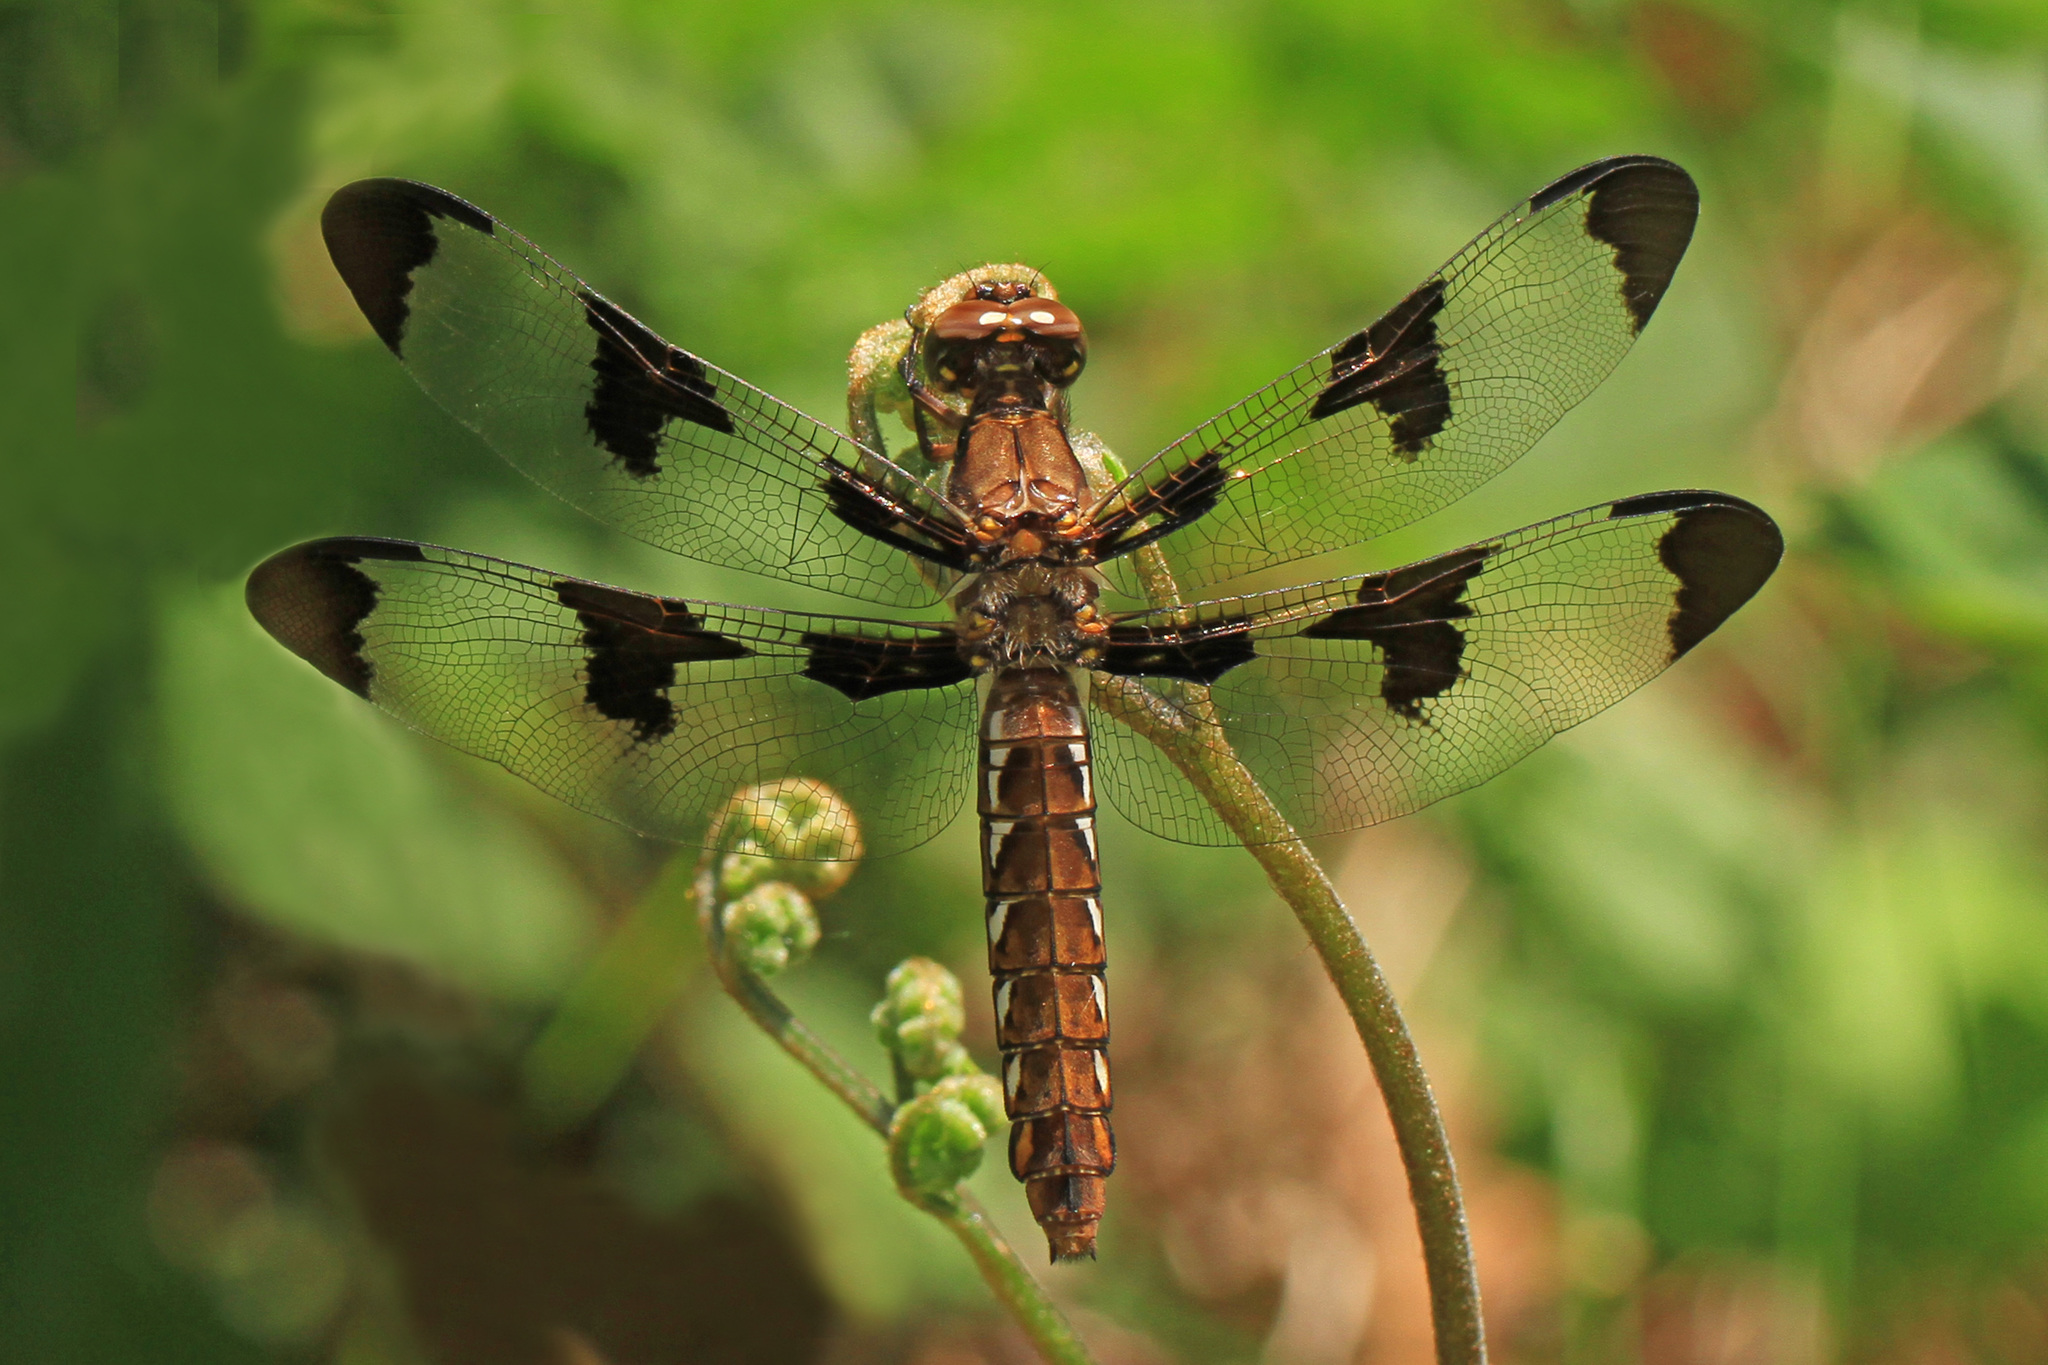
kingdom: Animalia
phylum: Arthropoda
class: Insecta
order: Odonata
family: Libellulidae
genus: Plathemis
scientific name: Plathemis lydia
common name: Common whitetail
